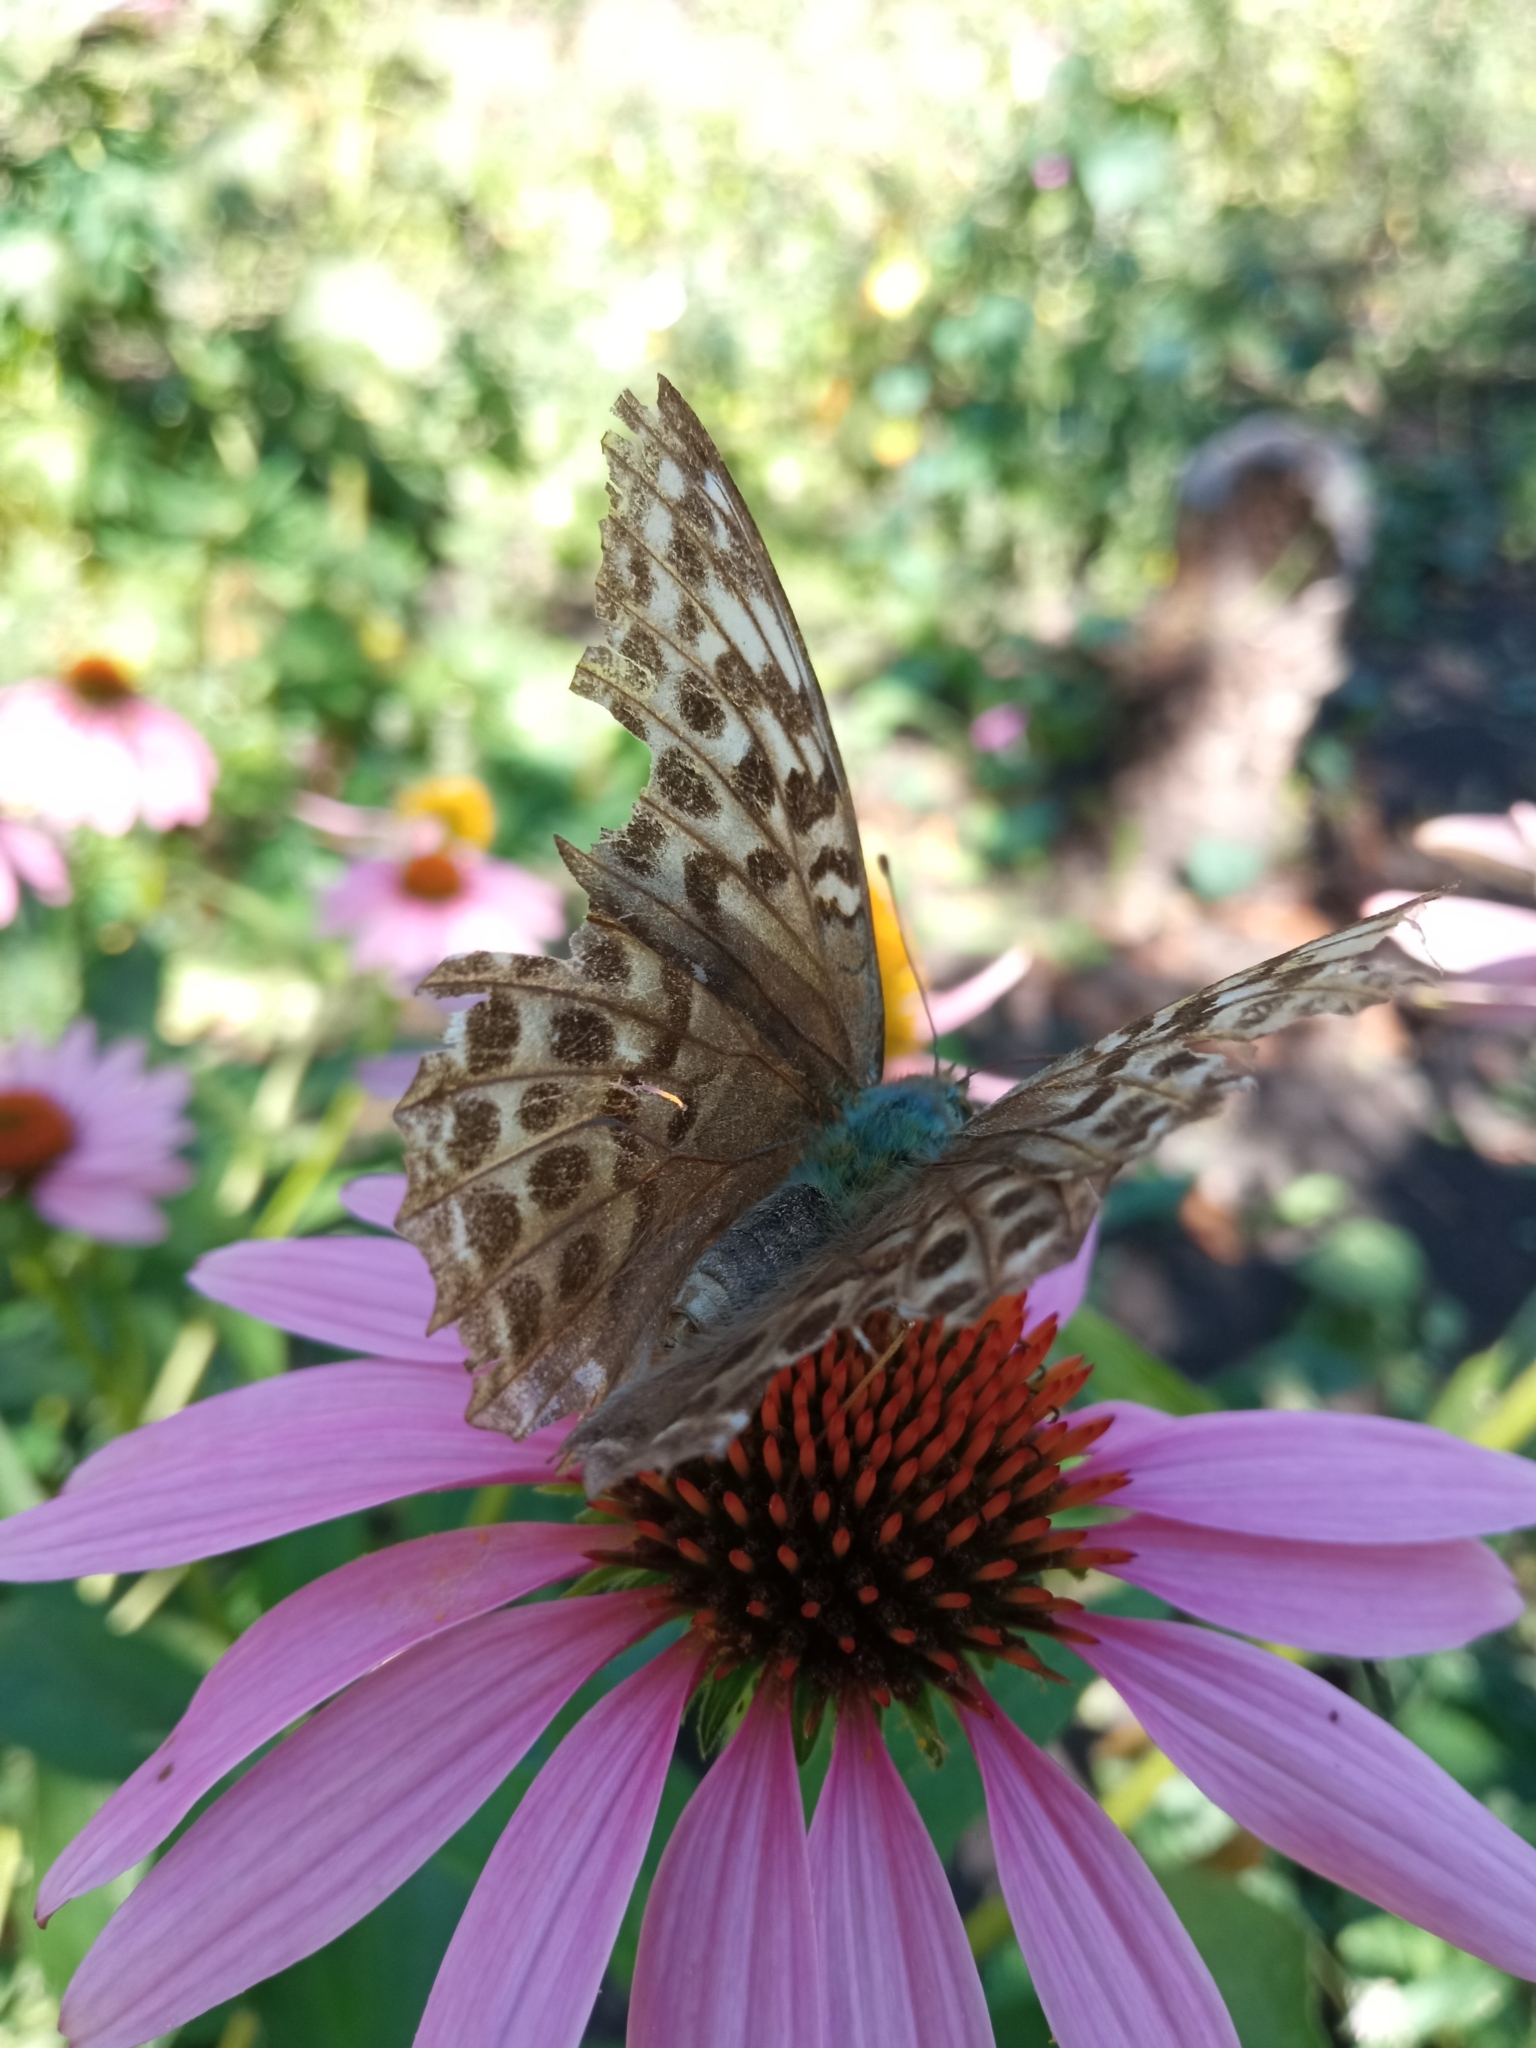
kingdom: Animalia
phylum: Arthropoda
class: Insecta
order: Lepidoptera
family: Nymphalidae
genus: Argynnis
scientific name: Argynnis paphia
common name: Silver-washed fritillary
